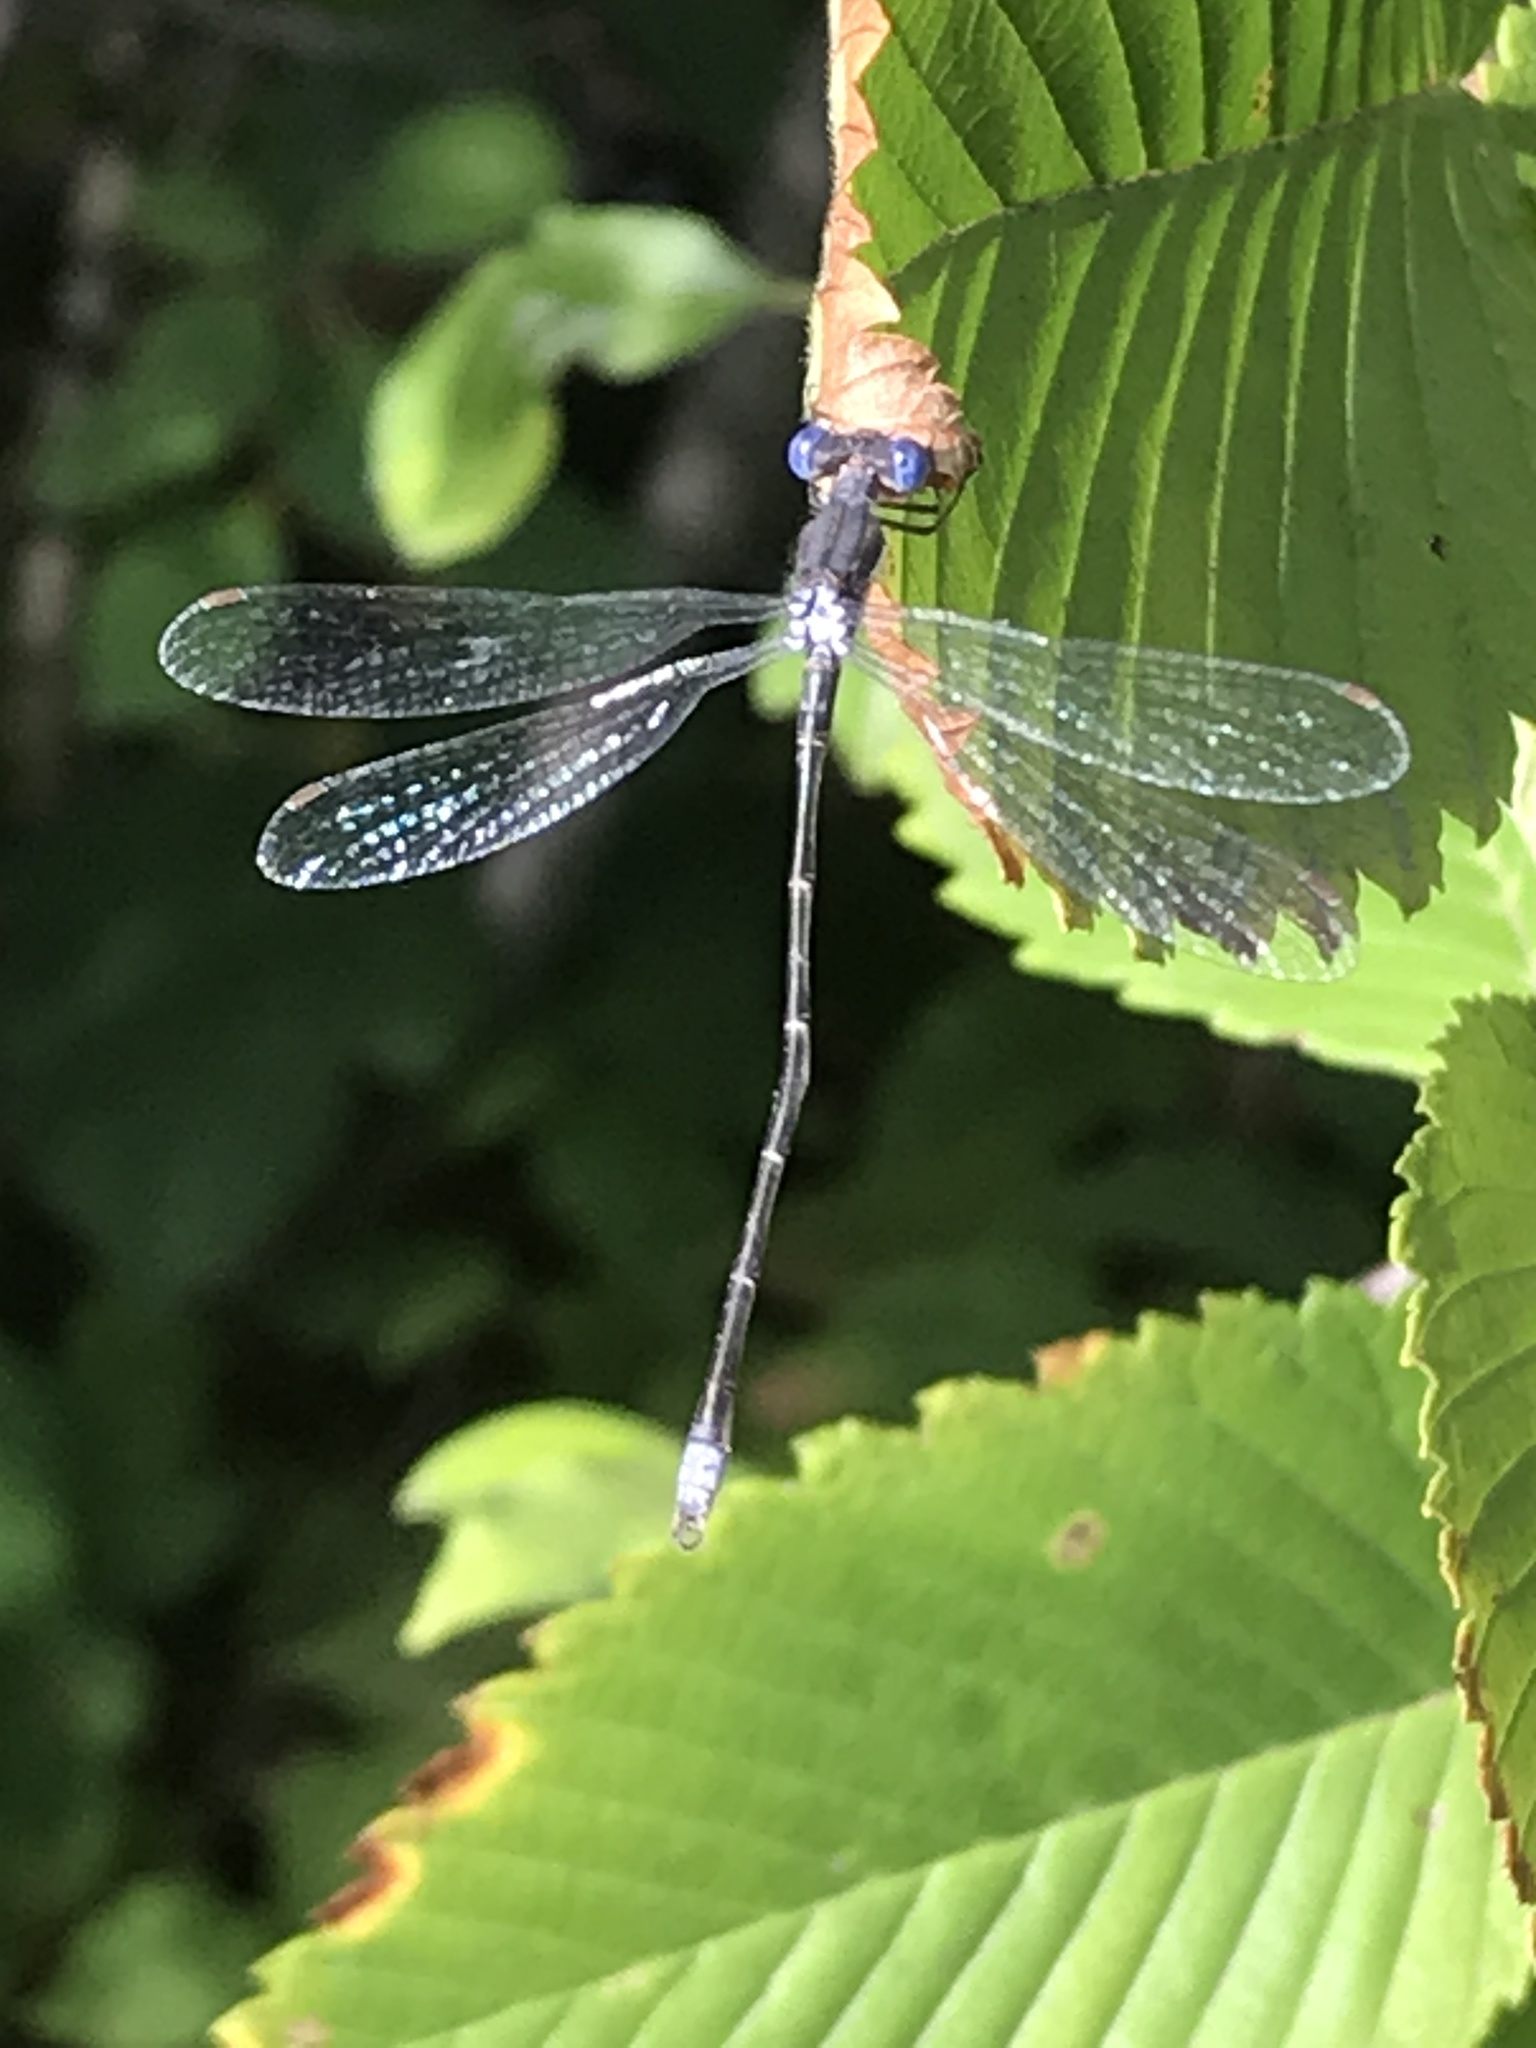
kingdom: Animalia
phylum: Arthropoda
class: Insecta
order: Odonata
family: Lestidae
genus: Lestes
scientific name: Lestes congener
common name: Spotted spreadwing
